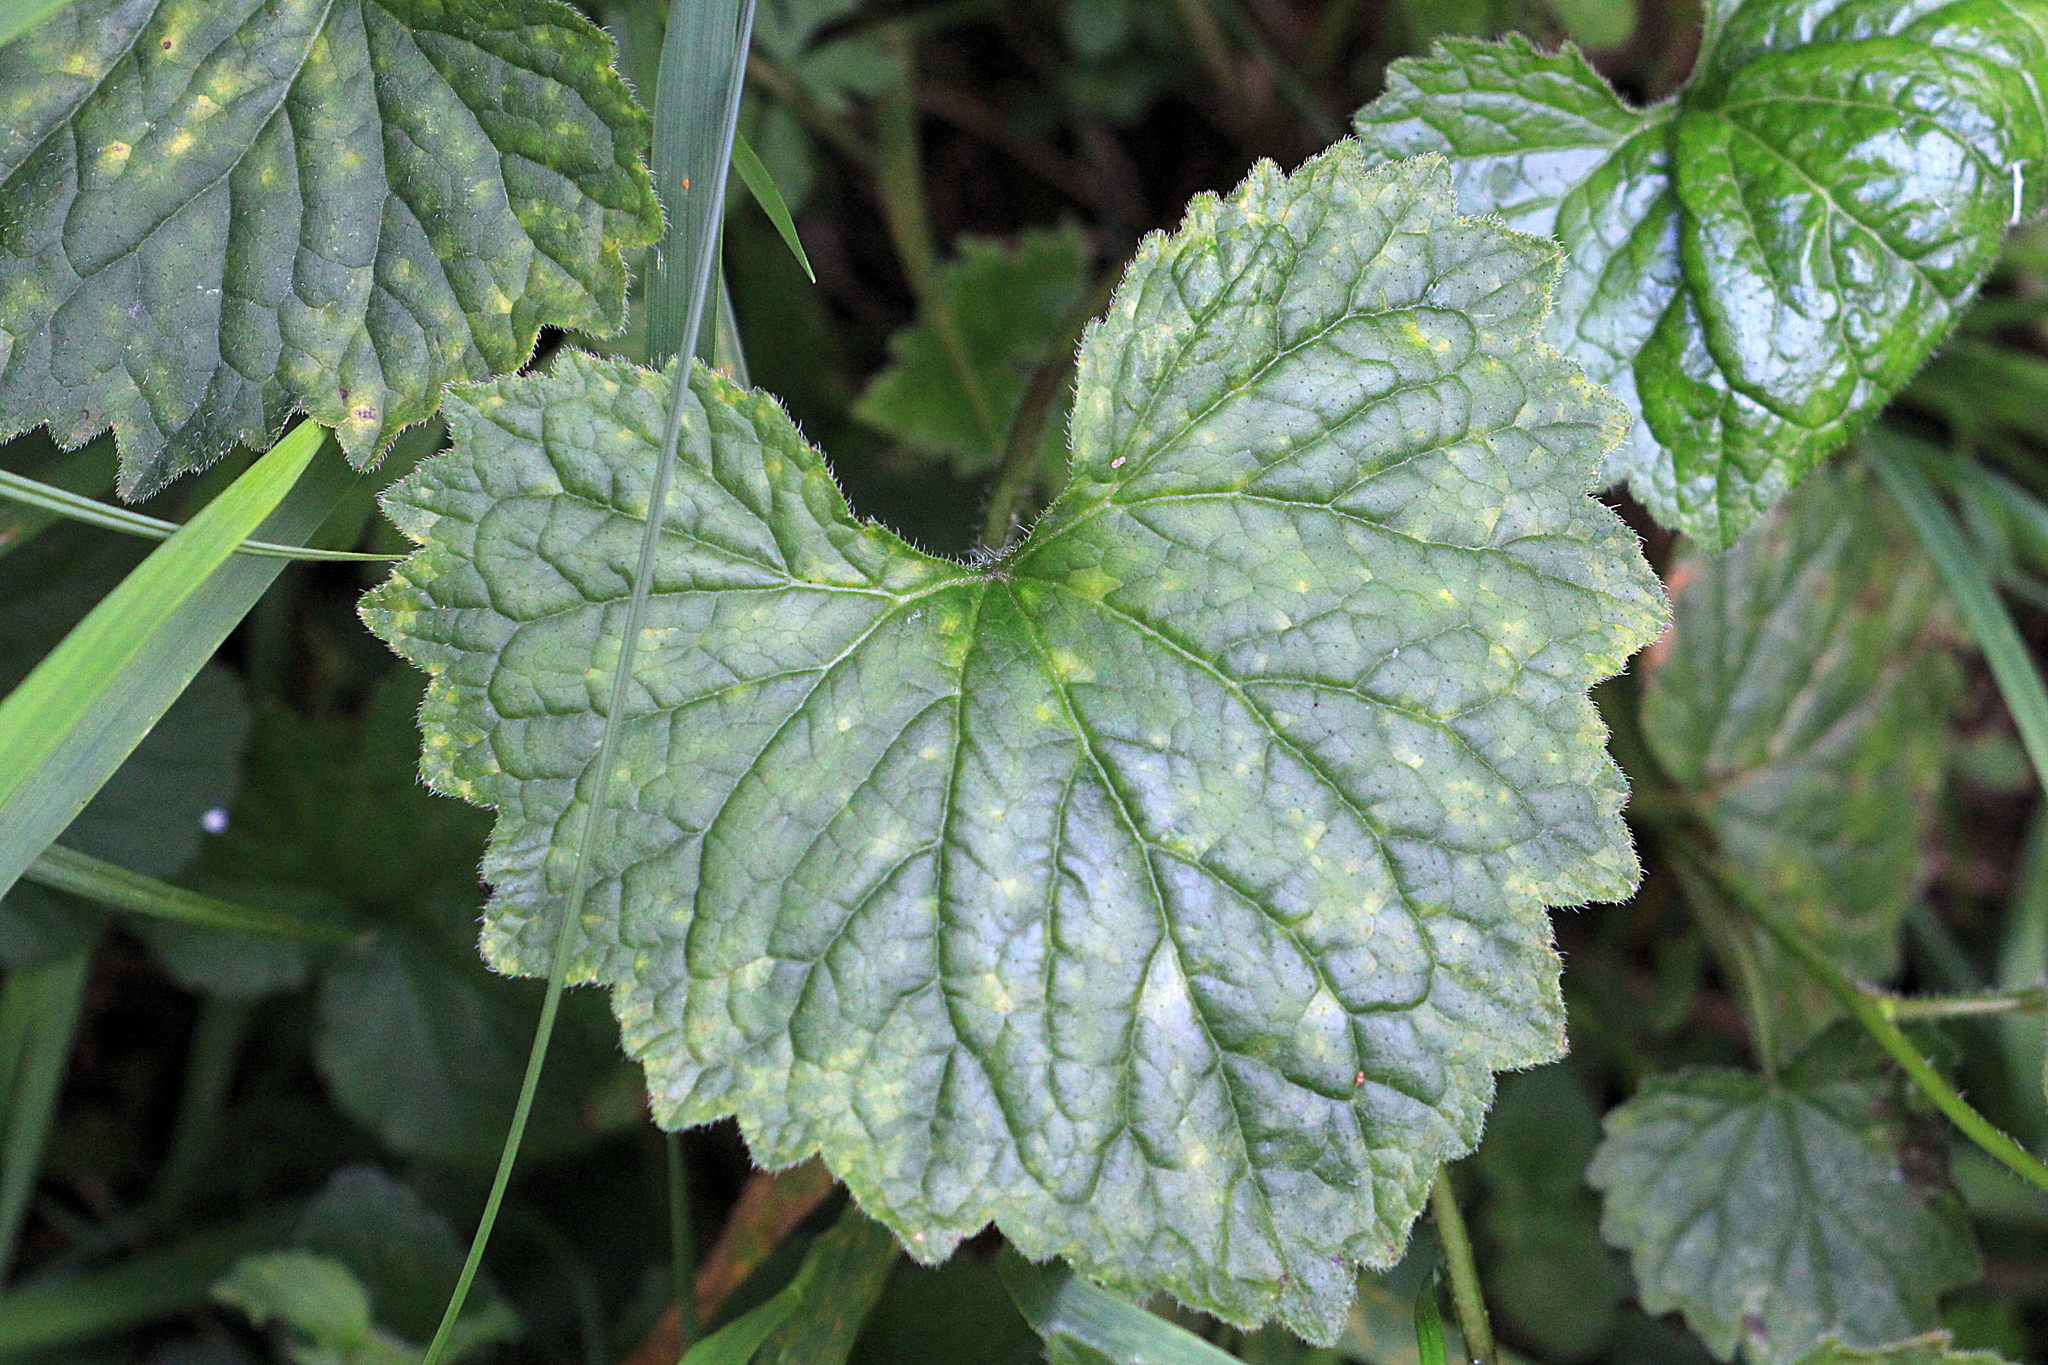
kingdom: Plantae
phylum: Tracheophyta
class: Magnoliopsida
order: Asterales
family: Campanulaceae
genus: Campanula
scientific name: Campanula trachelium
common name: Nettle-leaved bellflower
